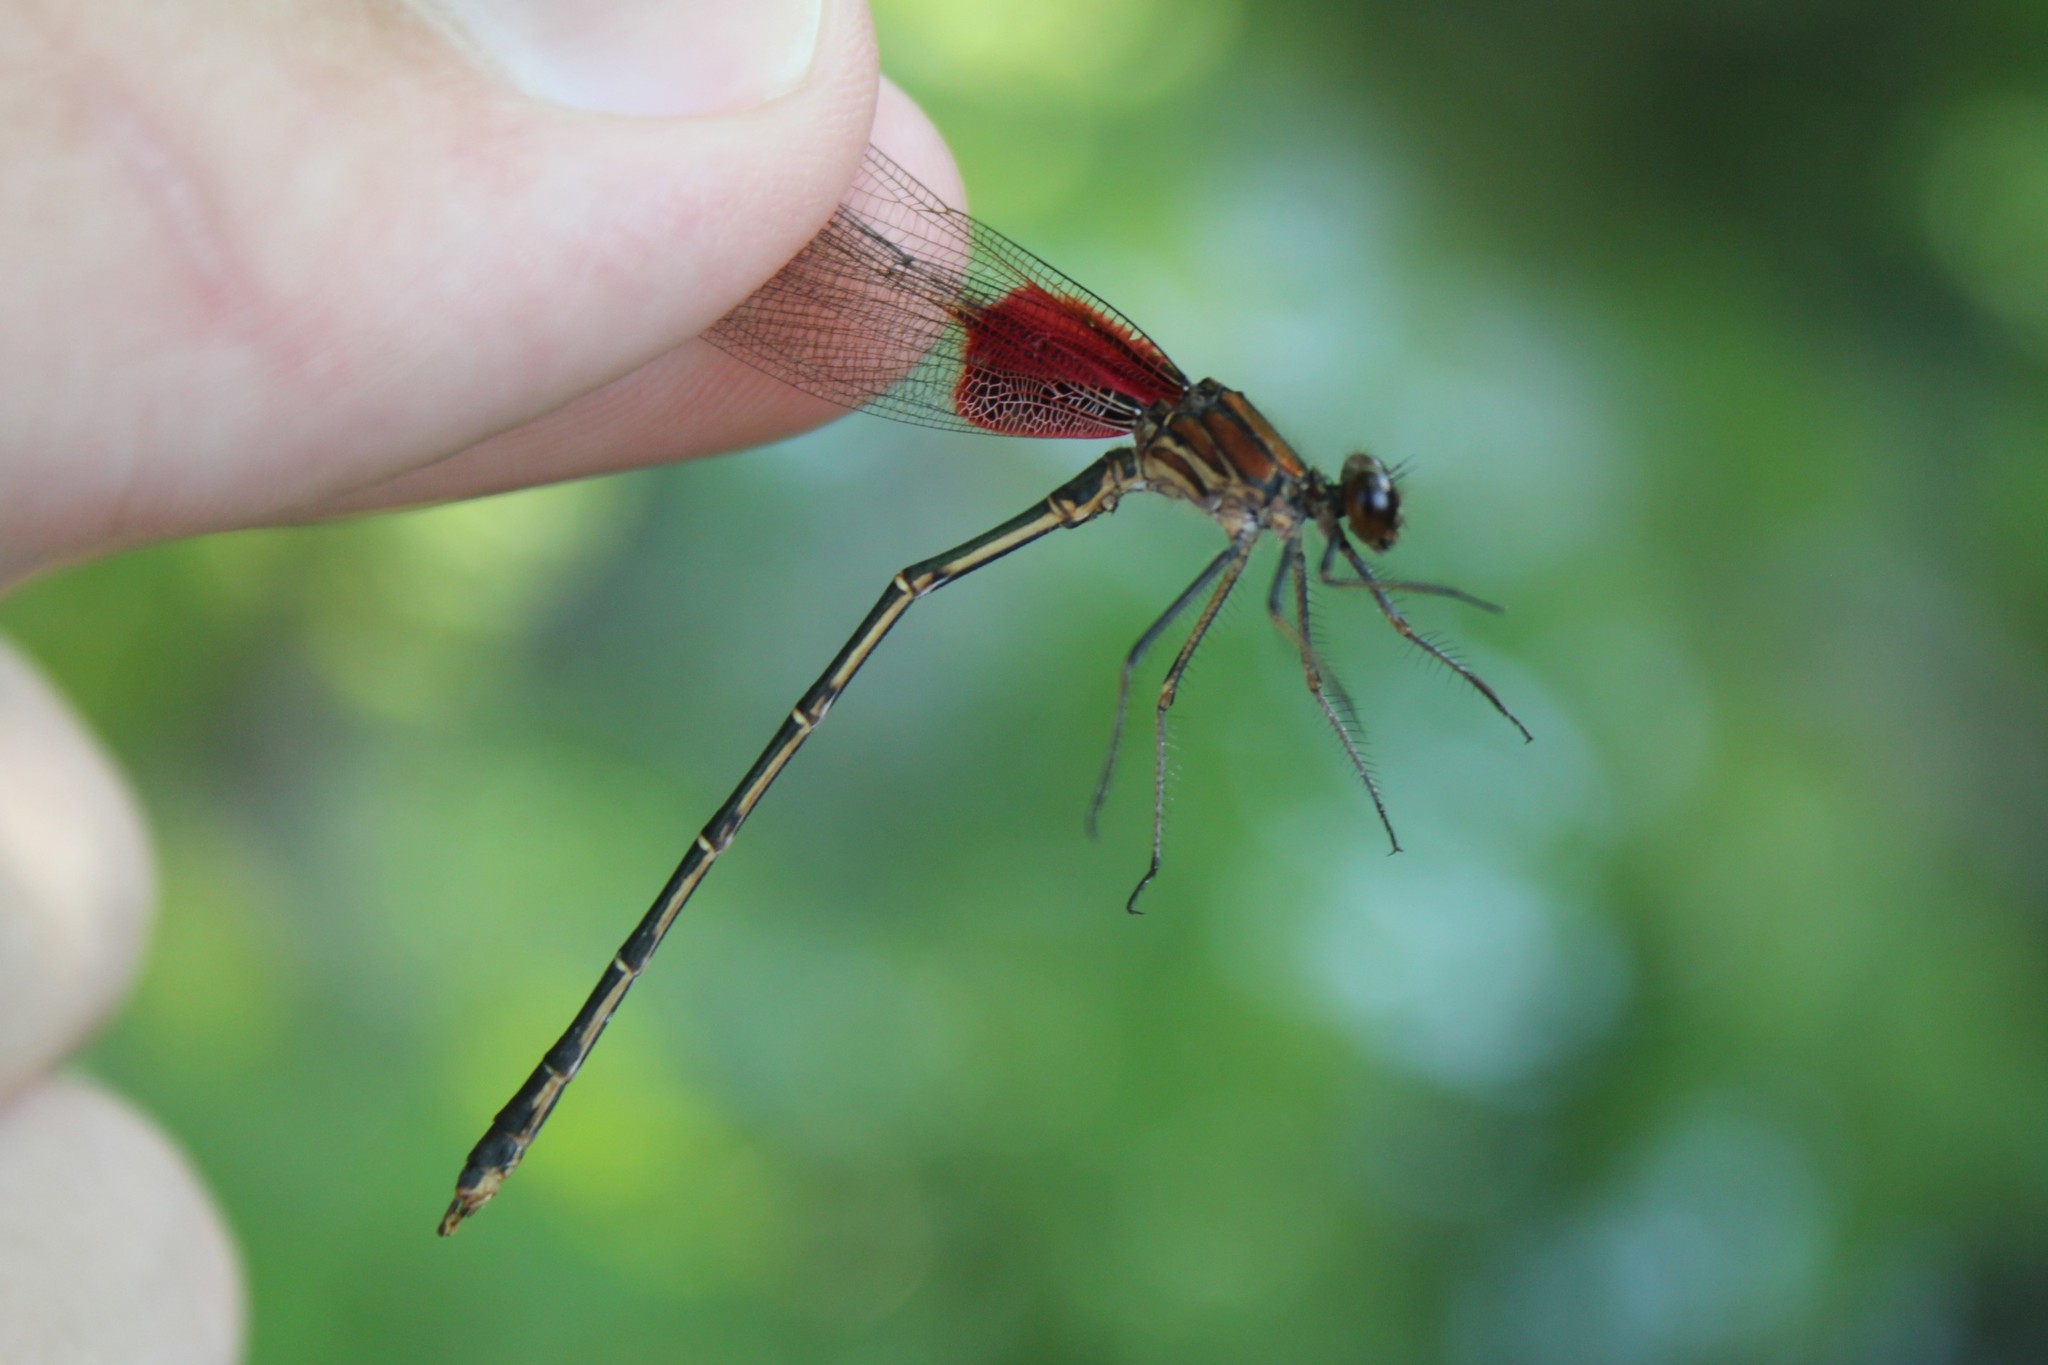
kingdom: Animalia
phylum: Arthropoda
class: Insecta
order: Odonata
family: Calopterygidae
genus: Hetaerina
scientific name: Hetaerina americana
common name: American rubyspot
